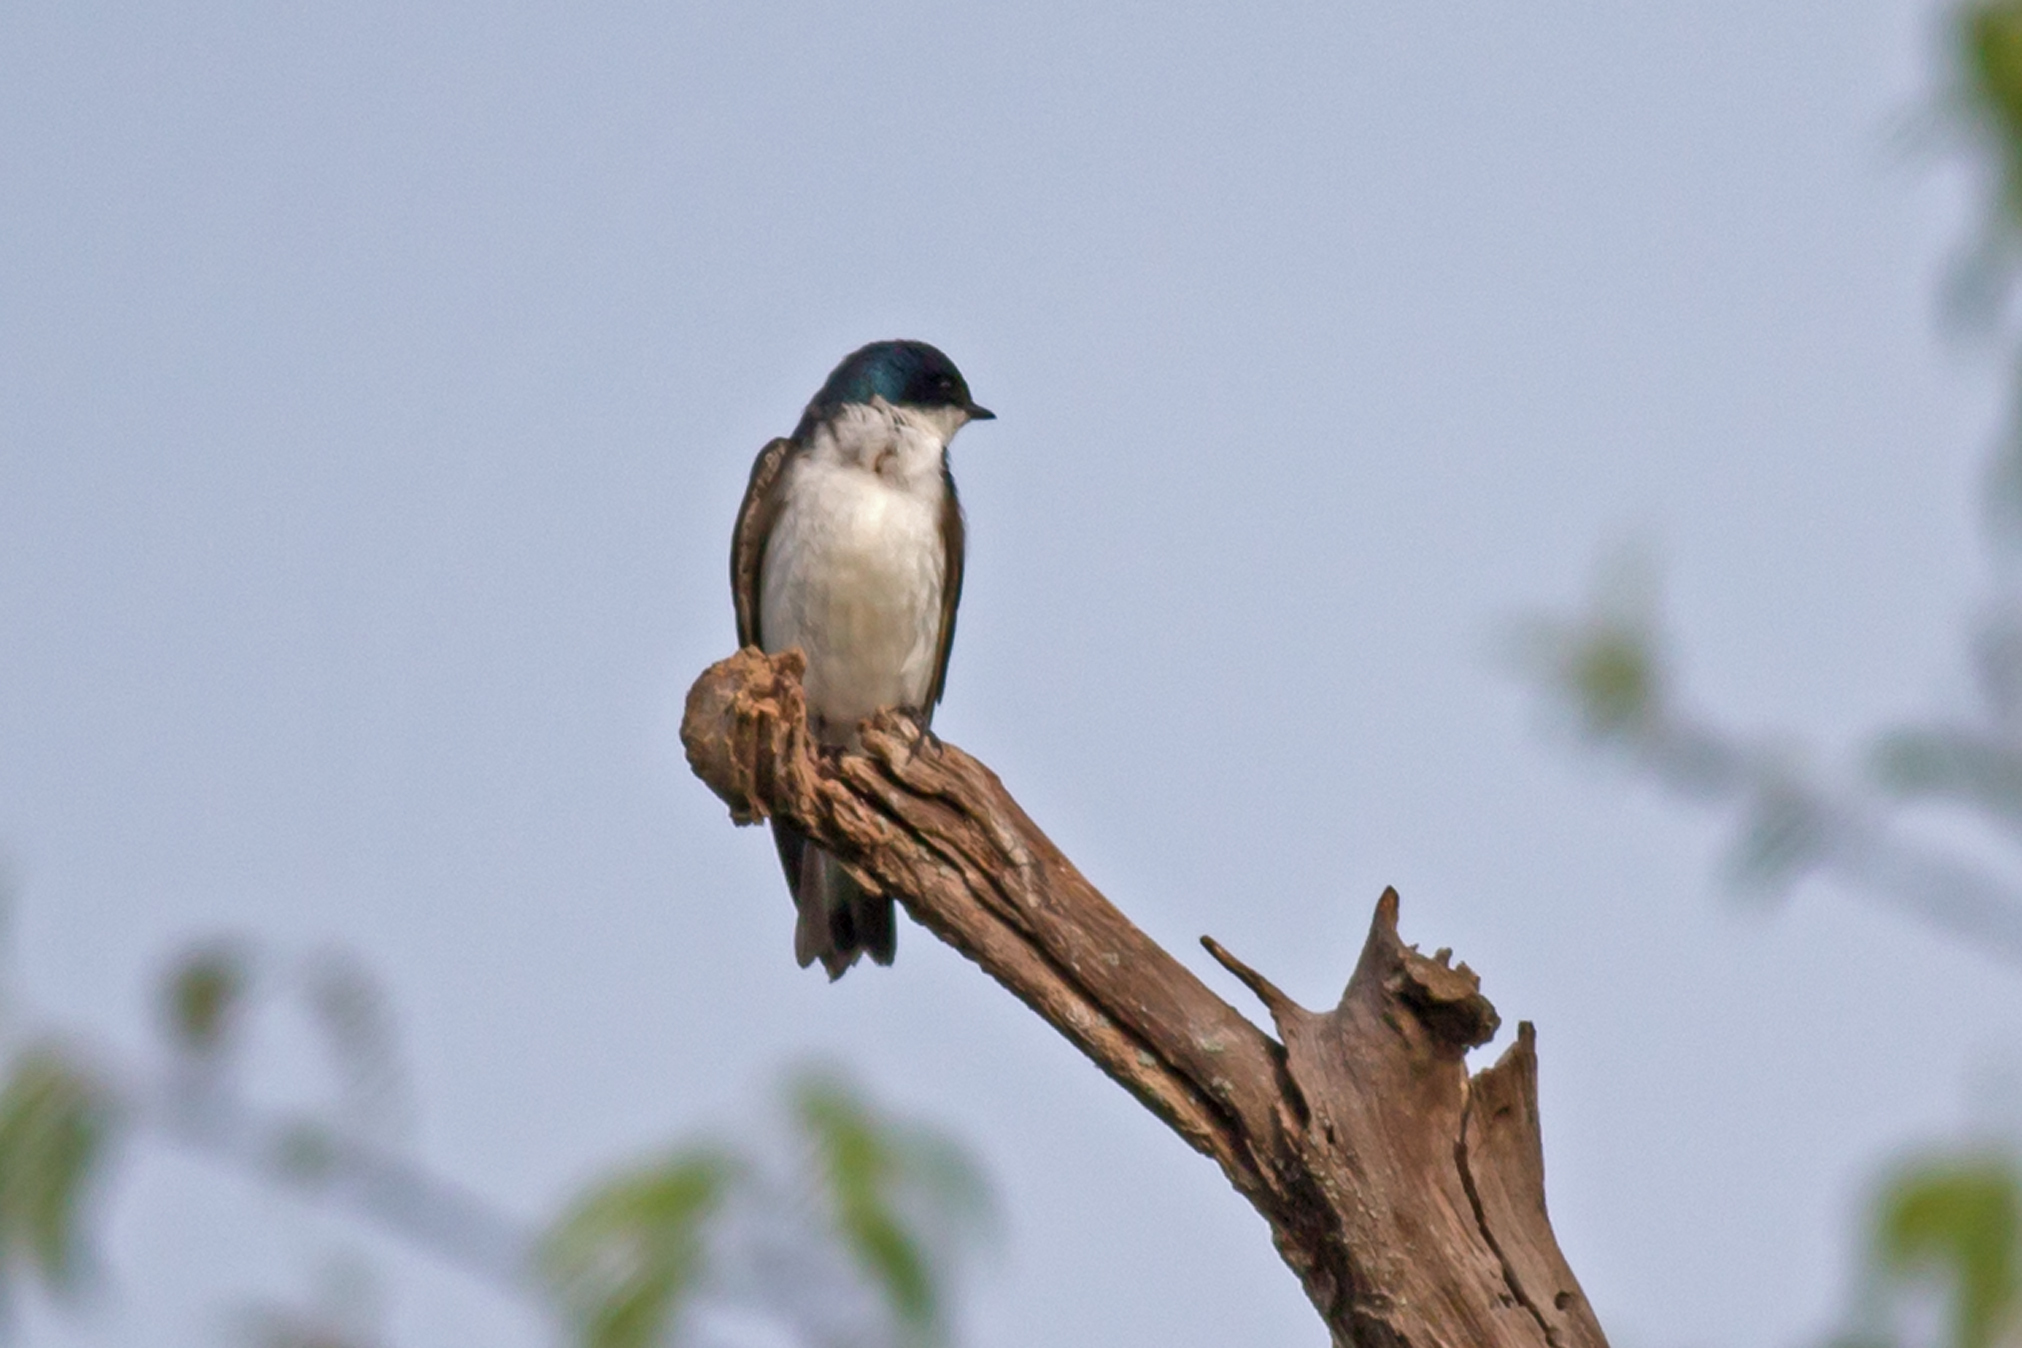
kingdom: Animalia
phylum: Chordata
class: Aves
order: Passeriformes
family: Hirundinidae
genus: Tachycineta
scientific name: Tachycineta bicolor
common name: Tree swallow
